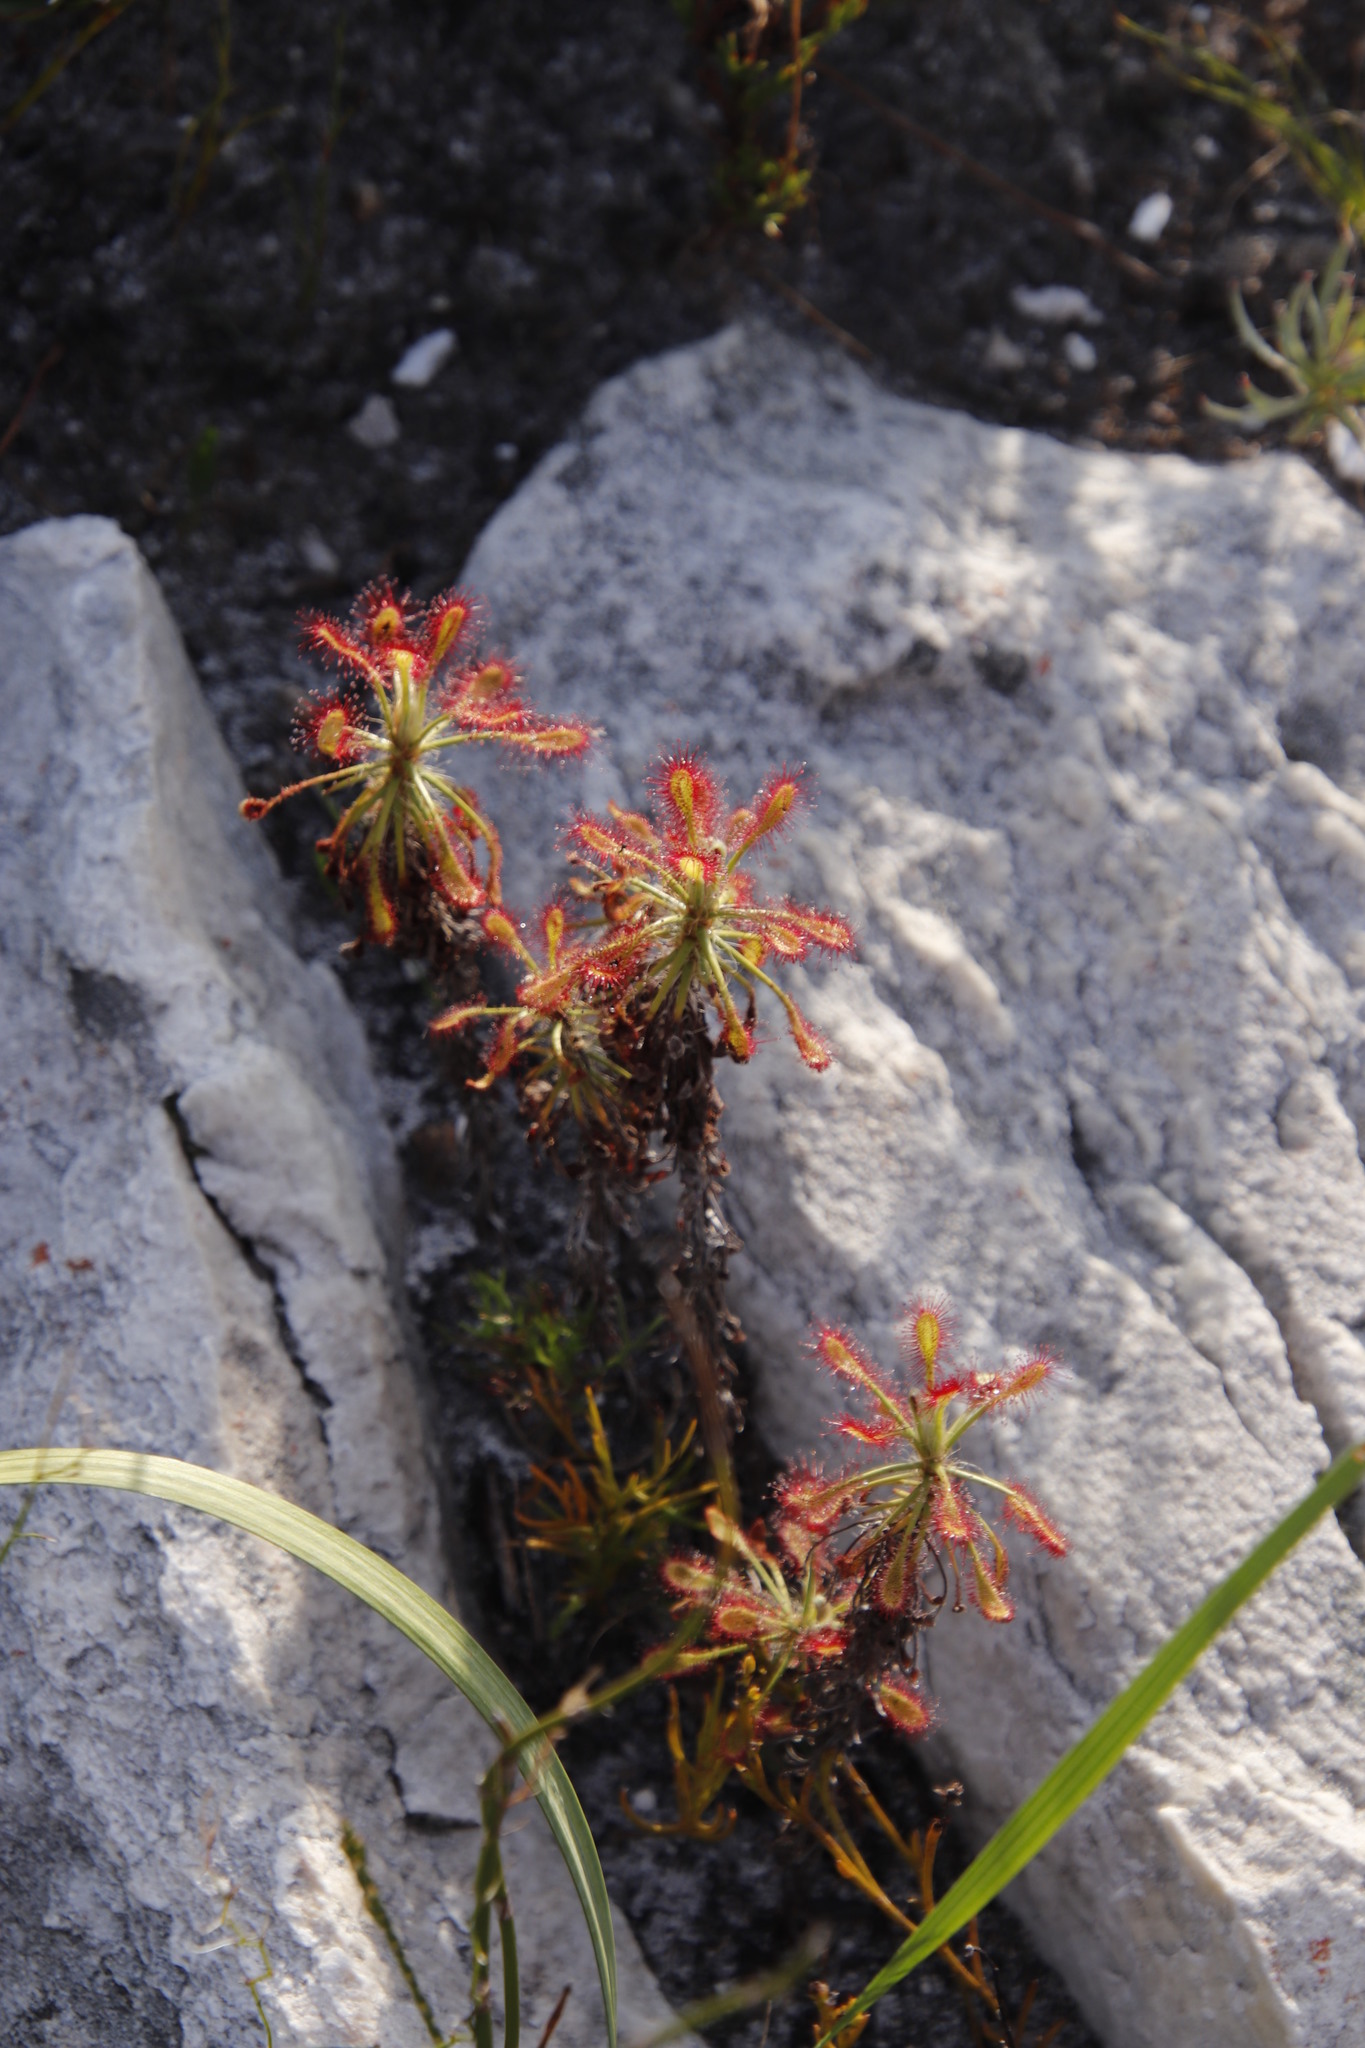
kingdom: Plantae
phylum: Tracheophyta
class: Magnoliopsida
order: Caryophyllales
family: Droseraceae
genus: Drosera
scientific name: Drosera glabripes
